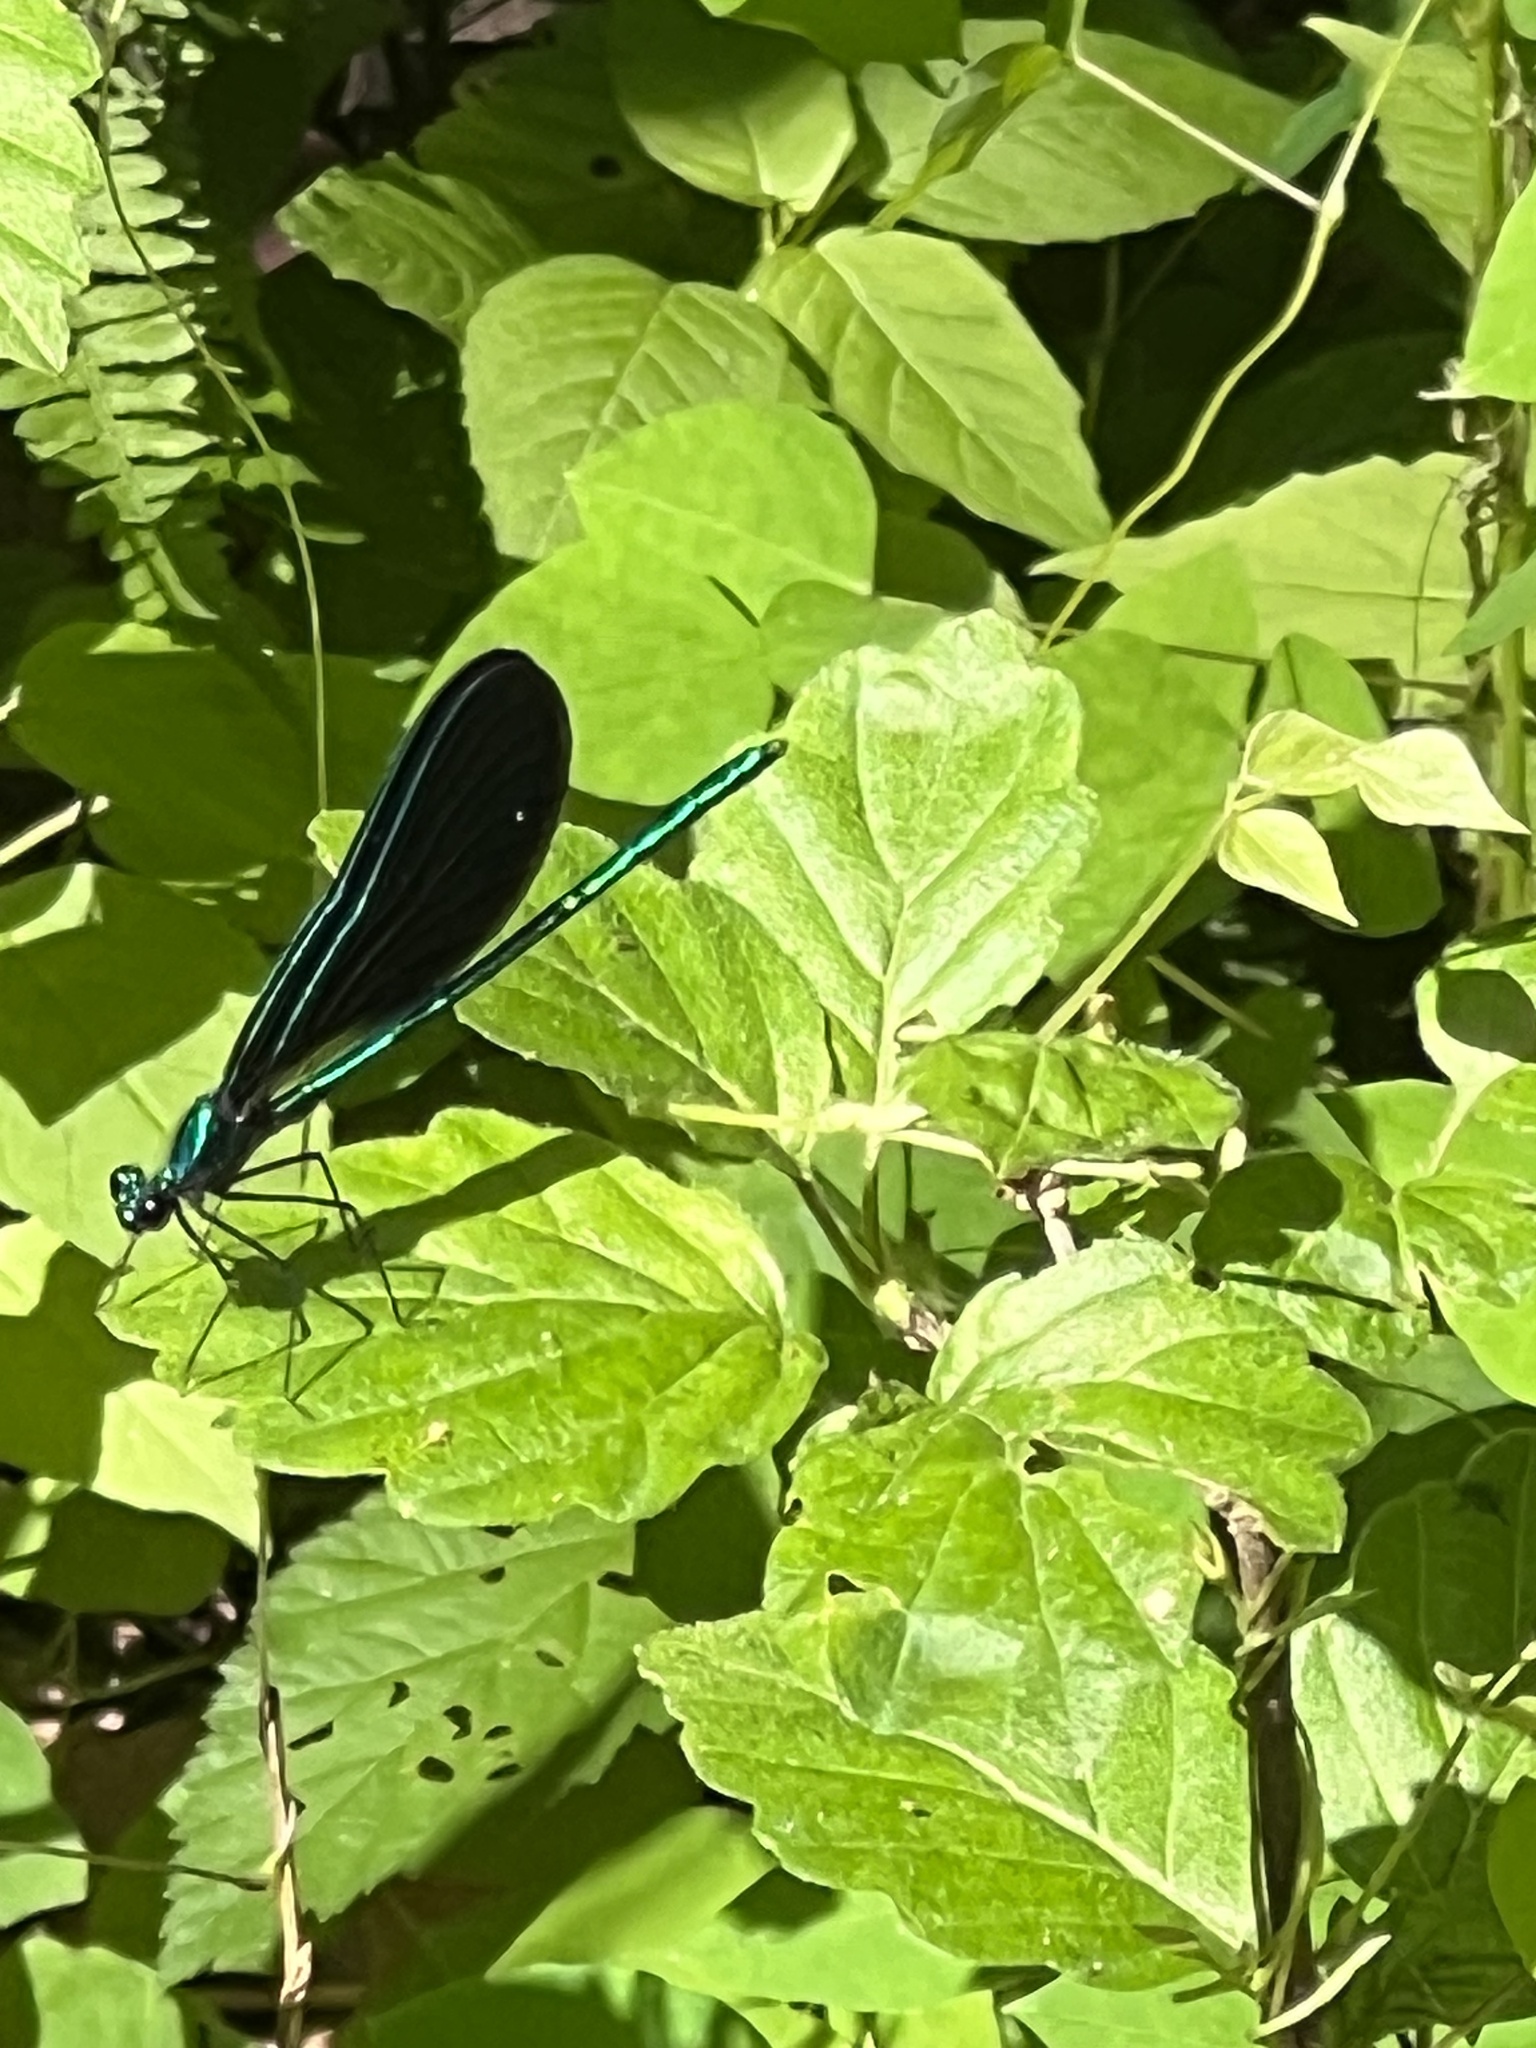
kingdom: Animalia
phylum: Arthropoda
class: Insecta
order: Odonata
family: Calopterygidae
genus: Calopteryx
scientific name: Calopteryx maculata
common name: Ebony jewelwing
